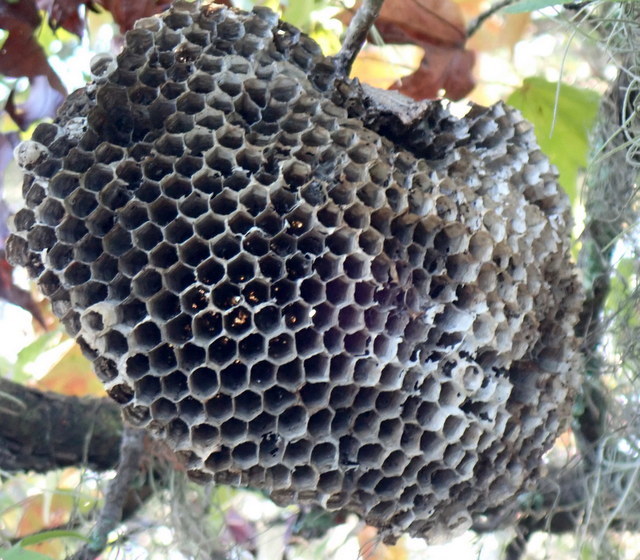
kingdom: Animalia
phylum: Arthropoda
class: Insecta
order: Hymenoptera
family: Vespidae
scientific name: Vespidae
